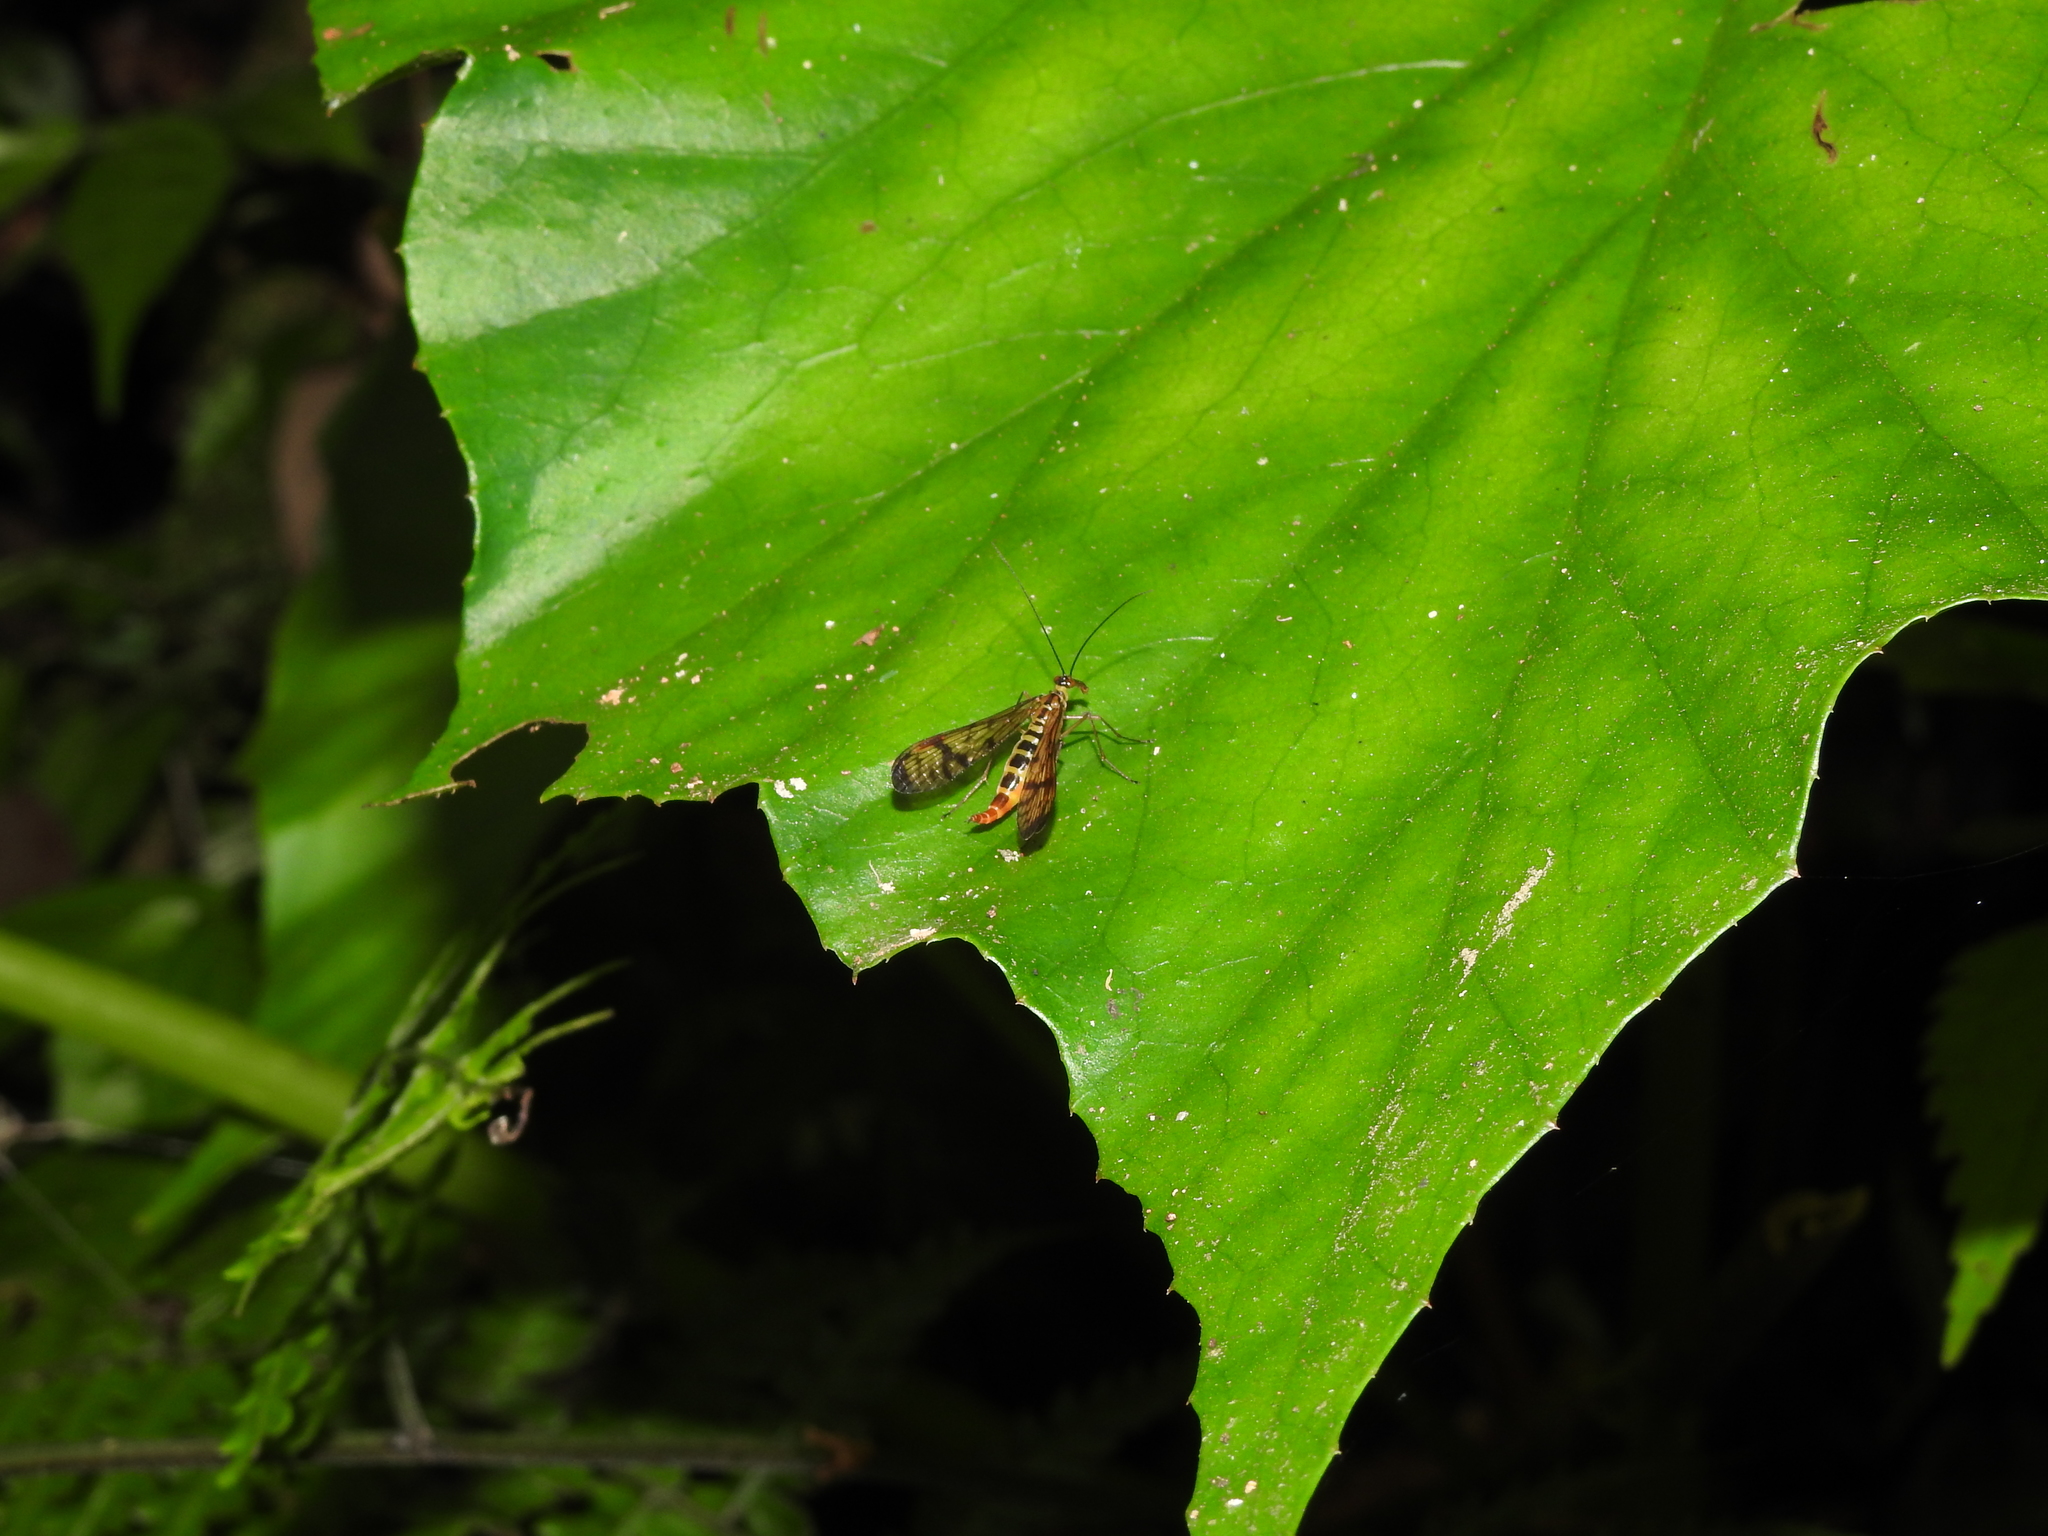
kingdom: Animalia
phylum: Arthropoda
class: Insecta
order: Mecoptera
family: Panorpidae
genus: Neopanorpa
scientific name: Neopanorpa ophthalmica
